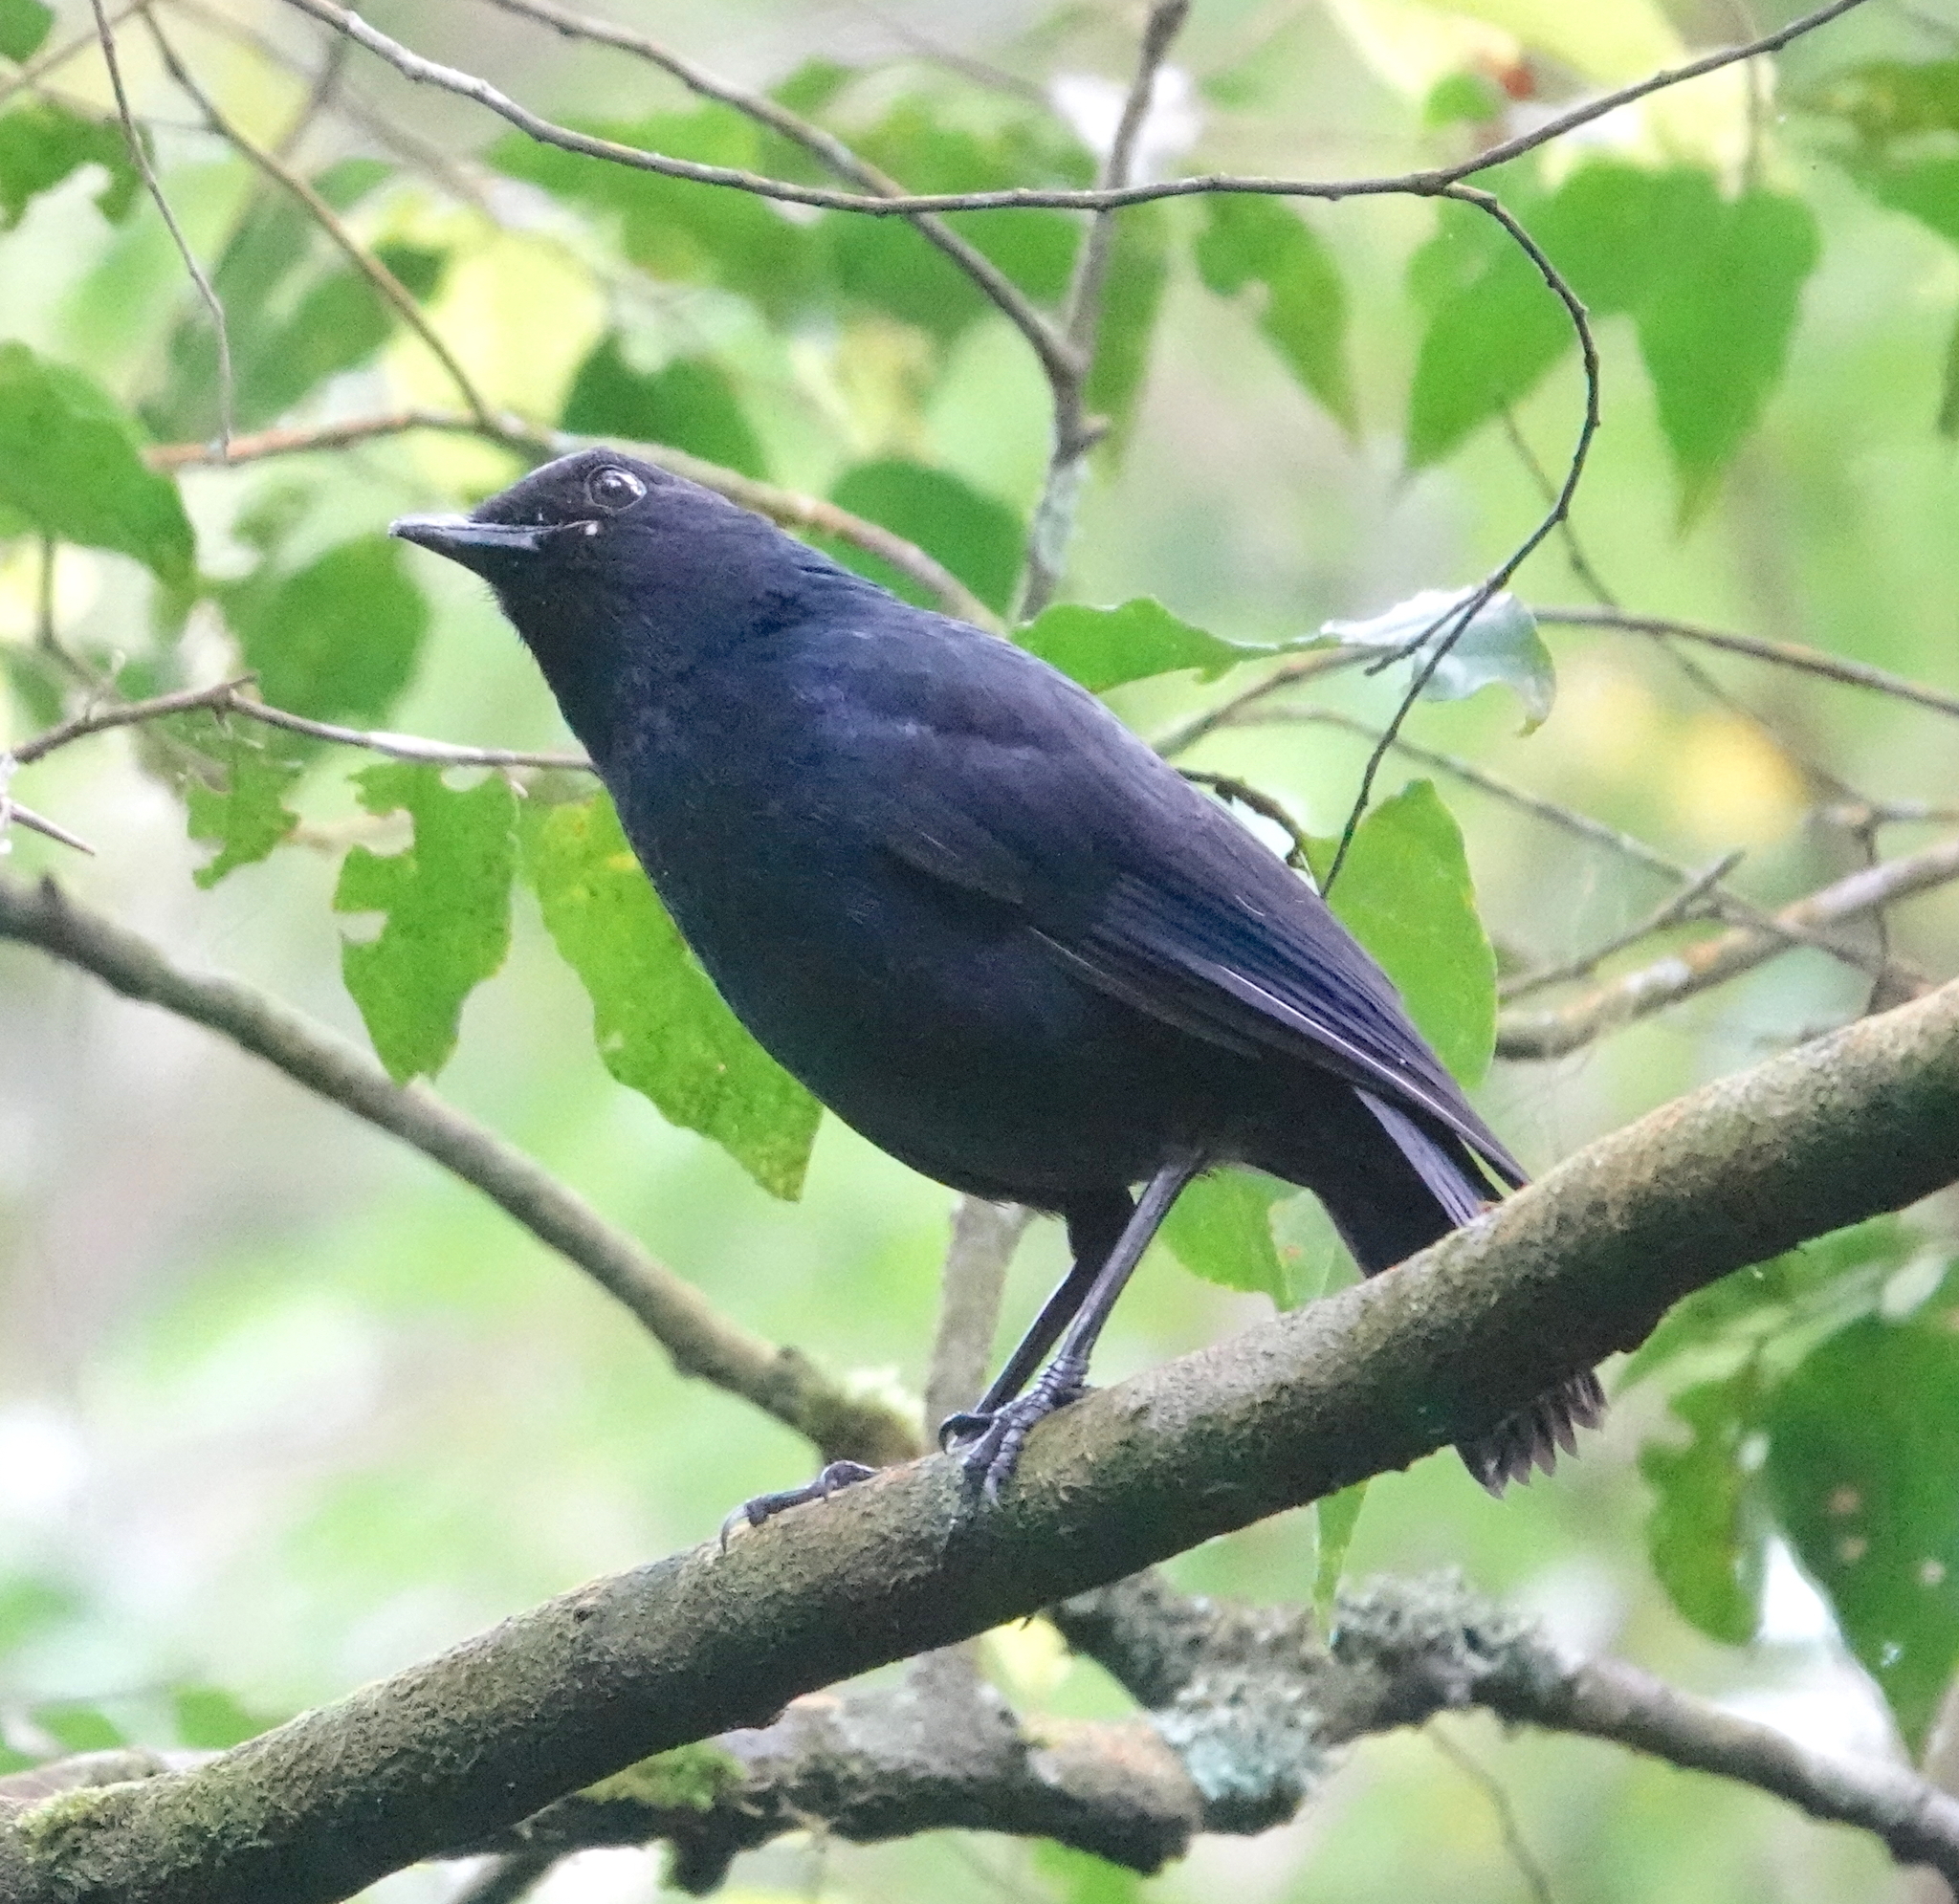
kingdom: Animalia
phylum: Chordata
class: Aves
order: Passeriformes
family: Muscicapidae
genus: Myophonus
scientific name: Myophonus glaucinus
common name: Javan whistling-thrush
